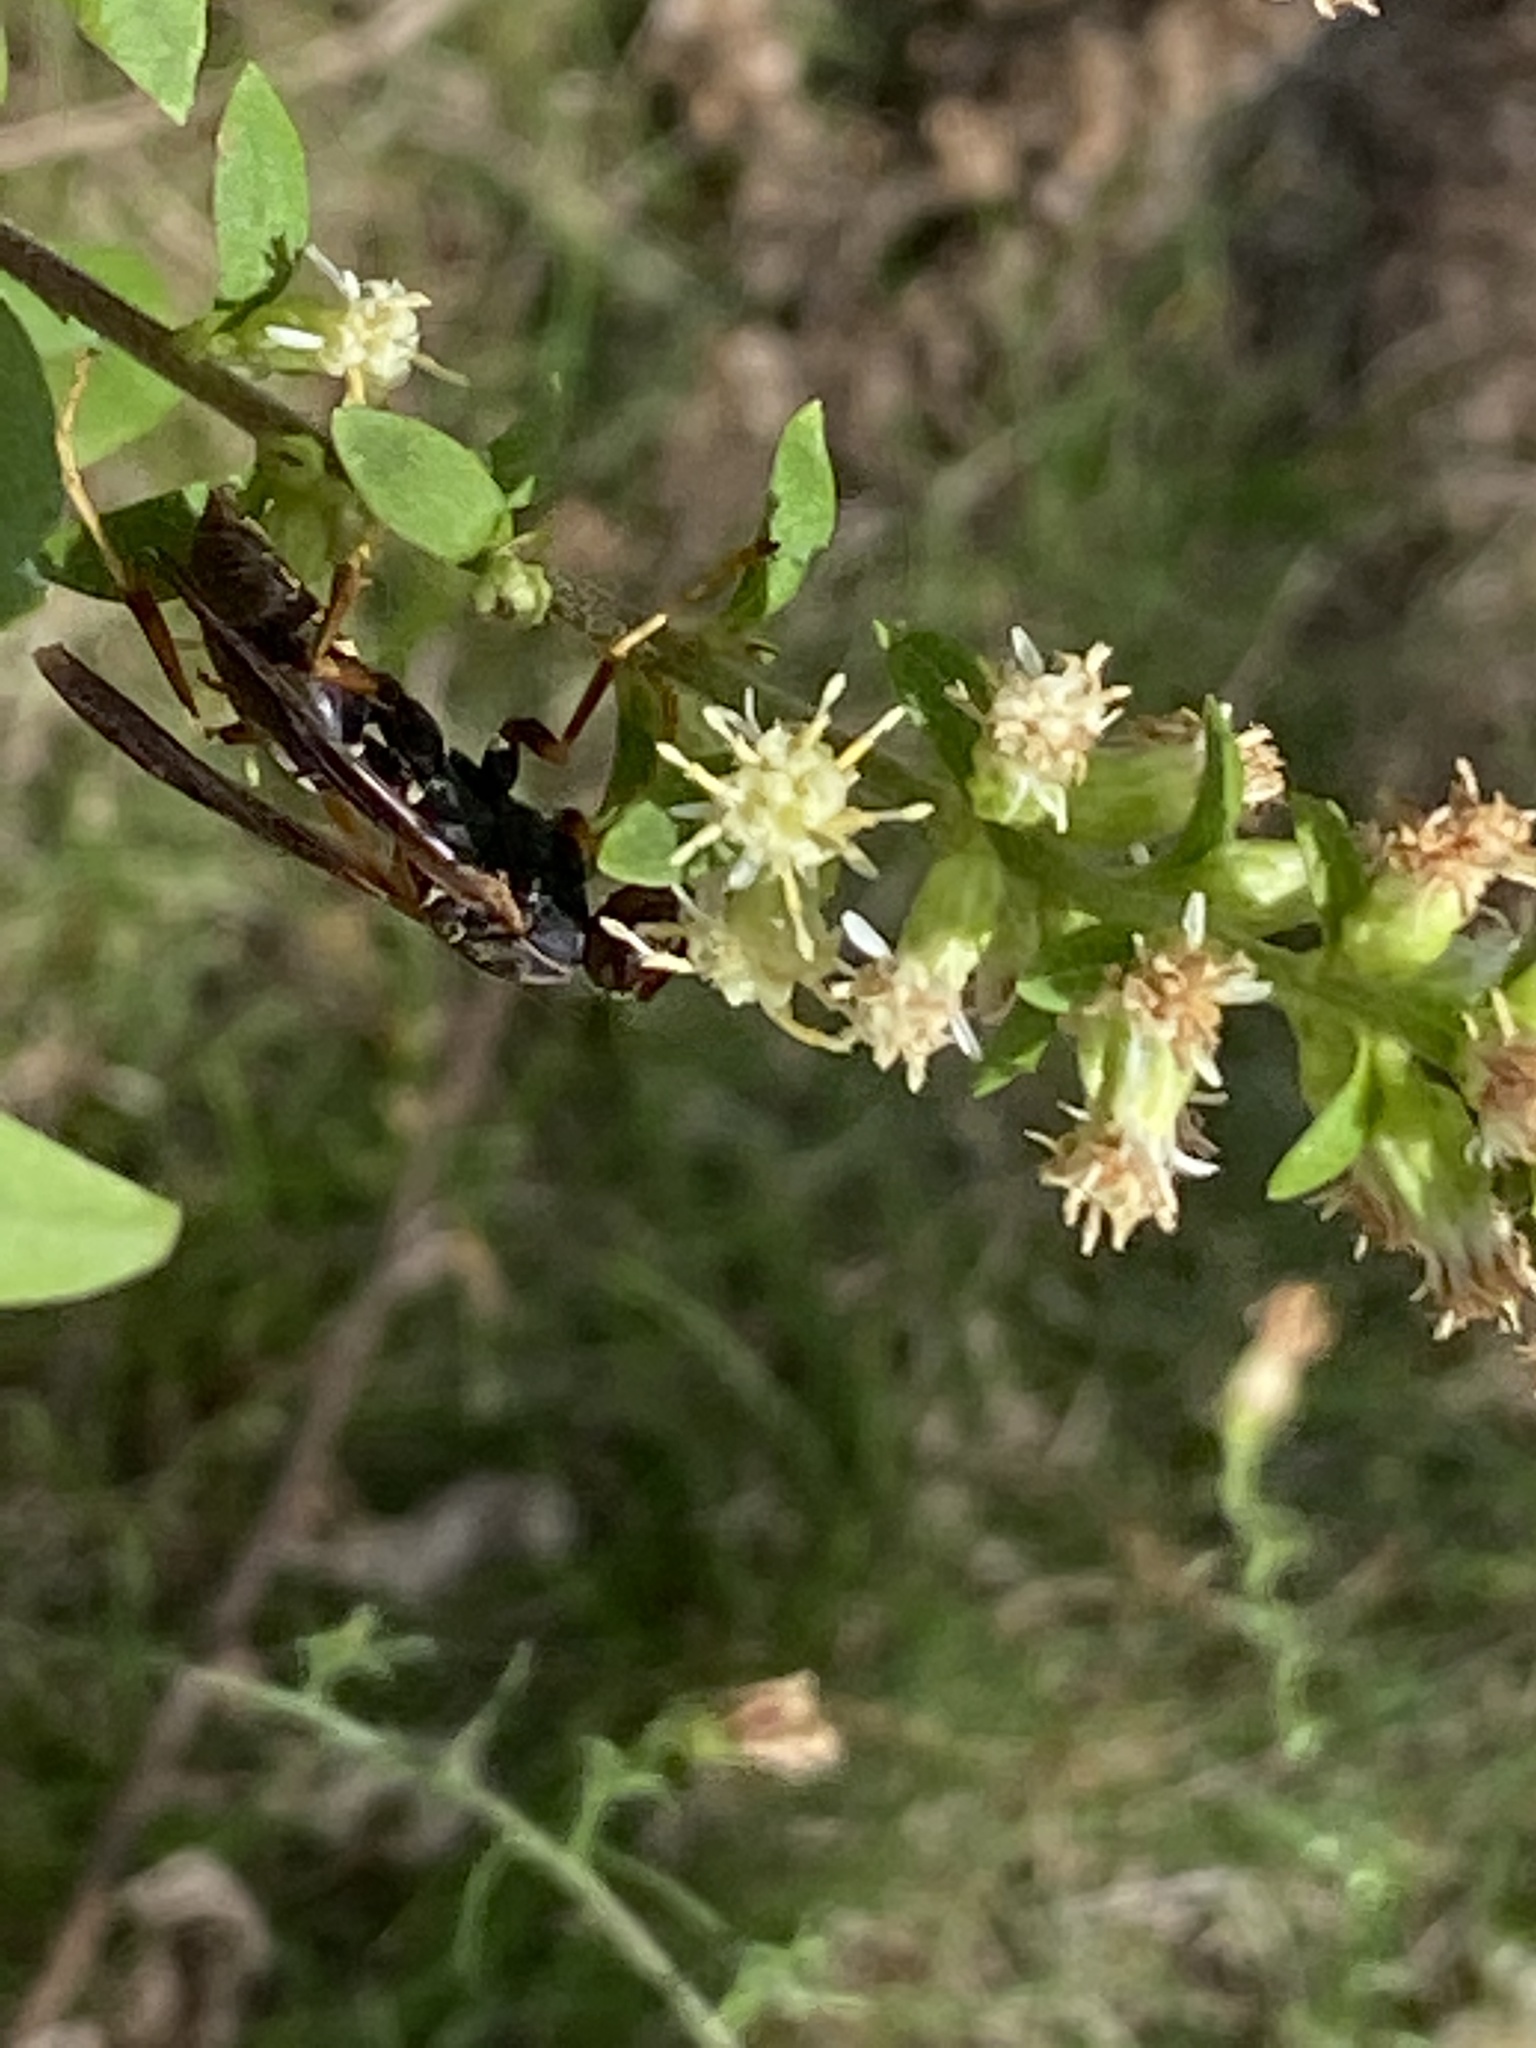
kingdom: Animalia
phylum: Arthropoda
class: Insecta
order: Hymenoptera
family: Eumenidae
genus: Polistes
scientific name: Polistes fuscatus
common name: Dark paper wasp
